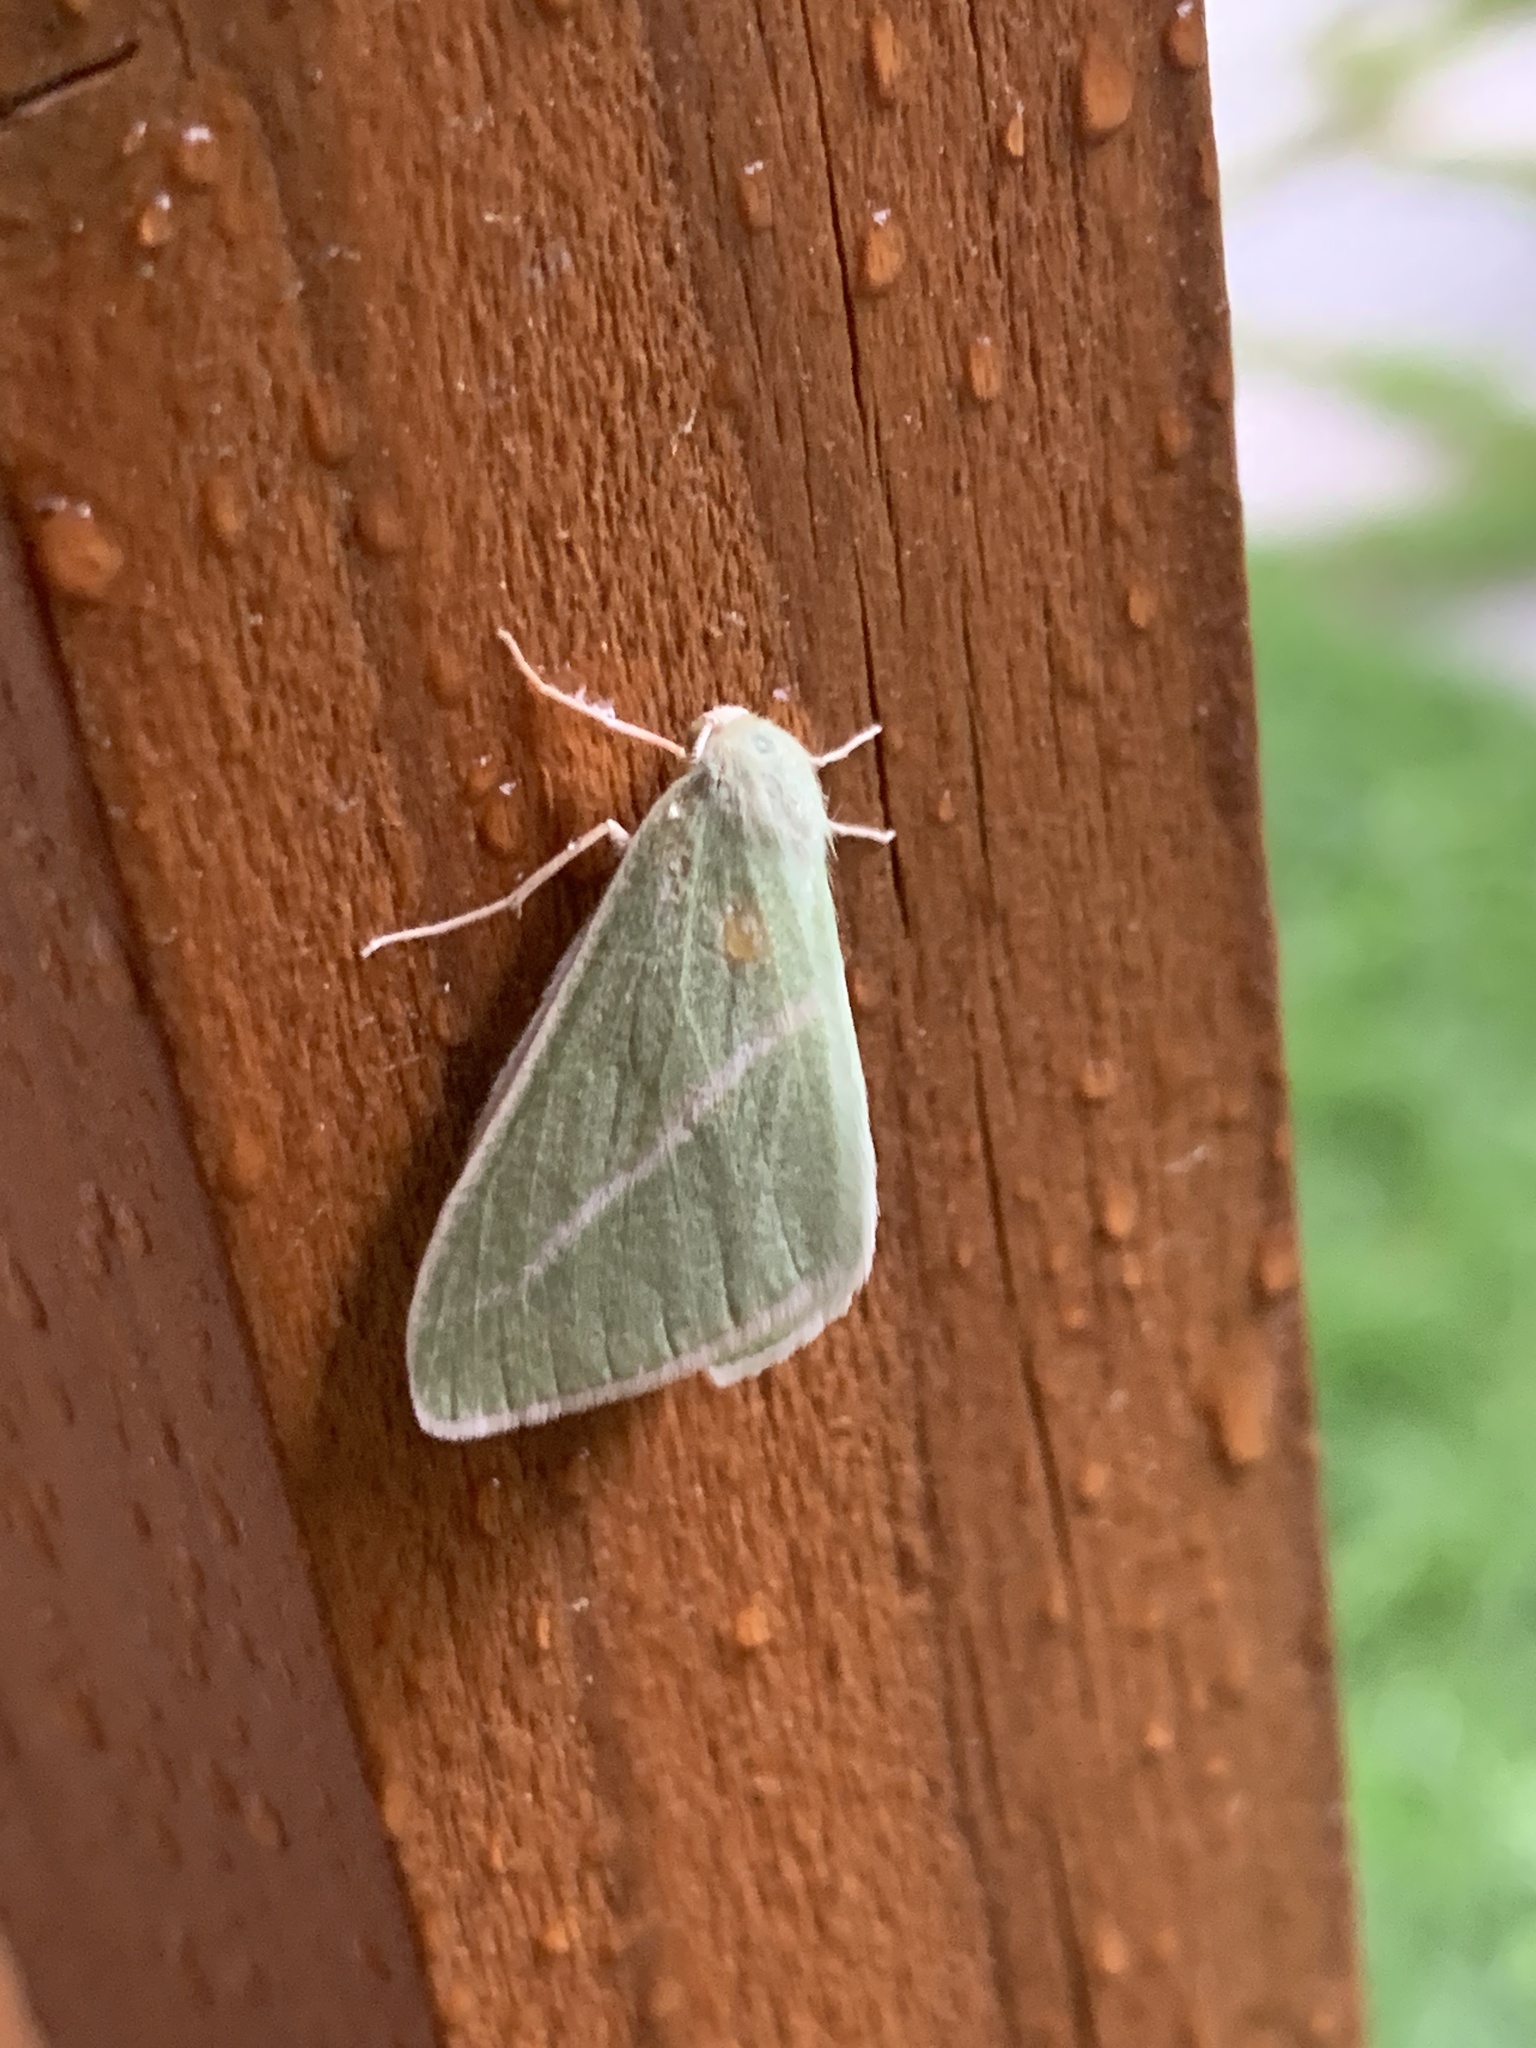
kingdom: Animalia
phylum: Arthropoda
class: Insecta
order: Lepidoptera
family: Geometridae
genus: Chlorosea
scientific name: Chlorosea margaretaria
